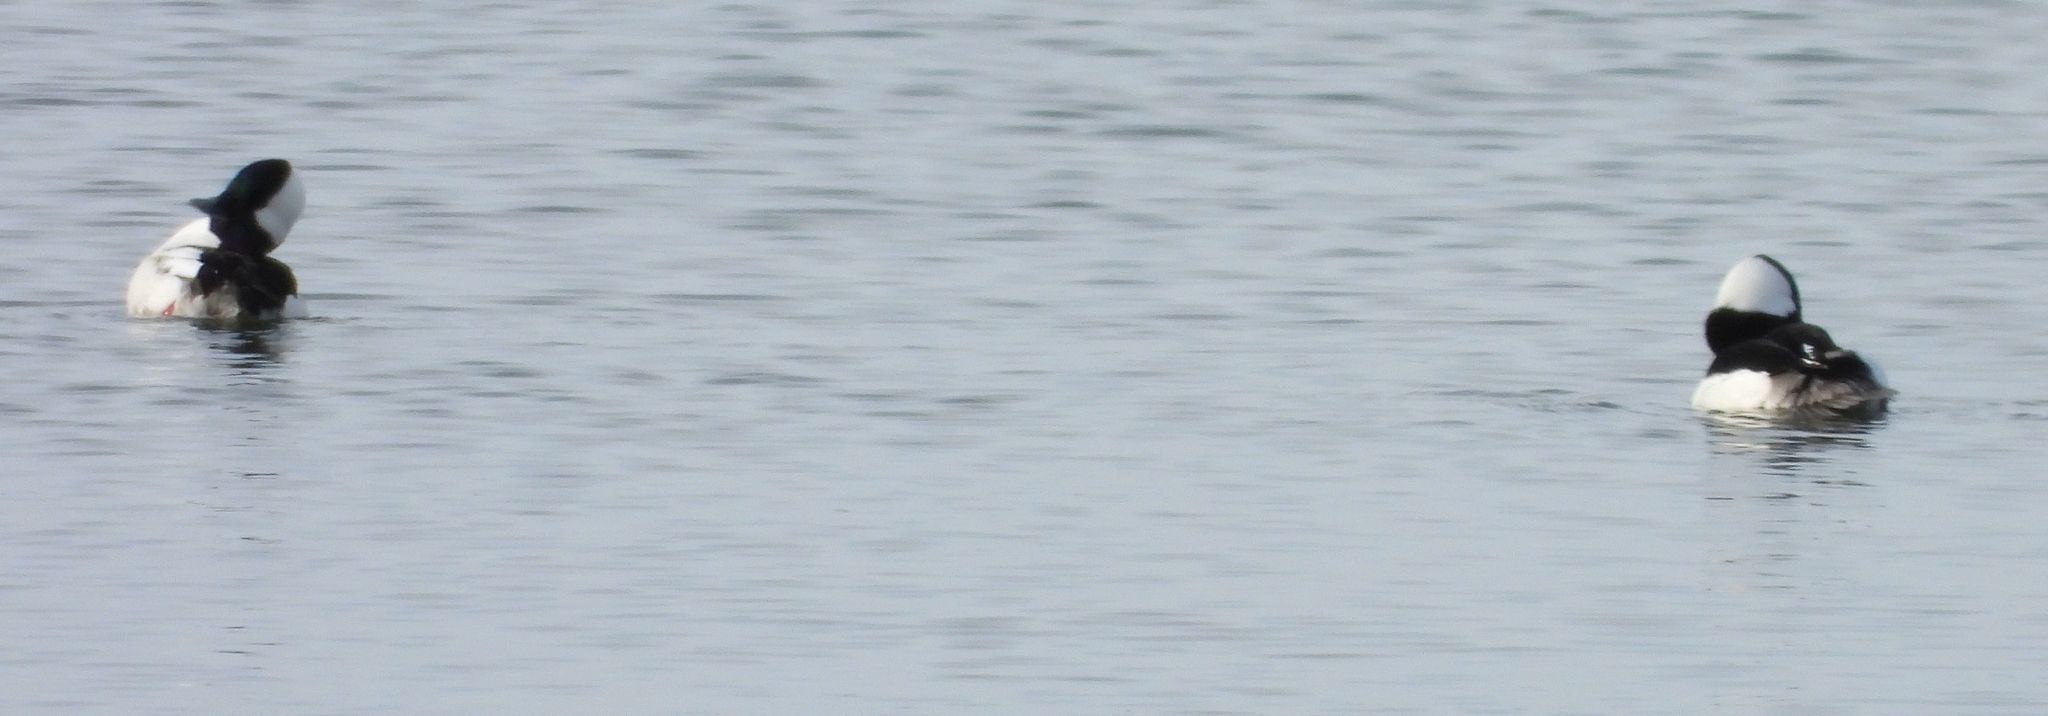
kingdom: Animalia
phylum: Chordata
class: Aves
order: Anseriformes
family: Anatidae
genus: Bucephala
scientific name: Bucephala albeola
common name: Bufflehead
